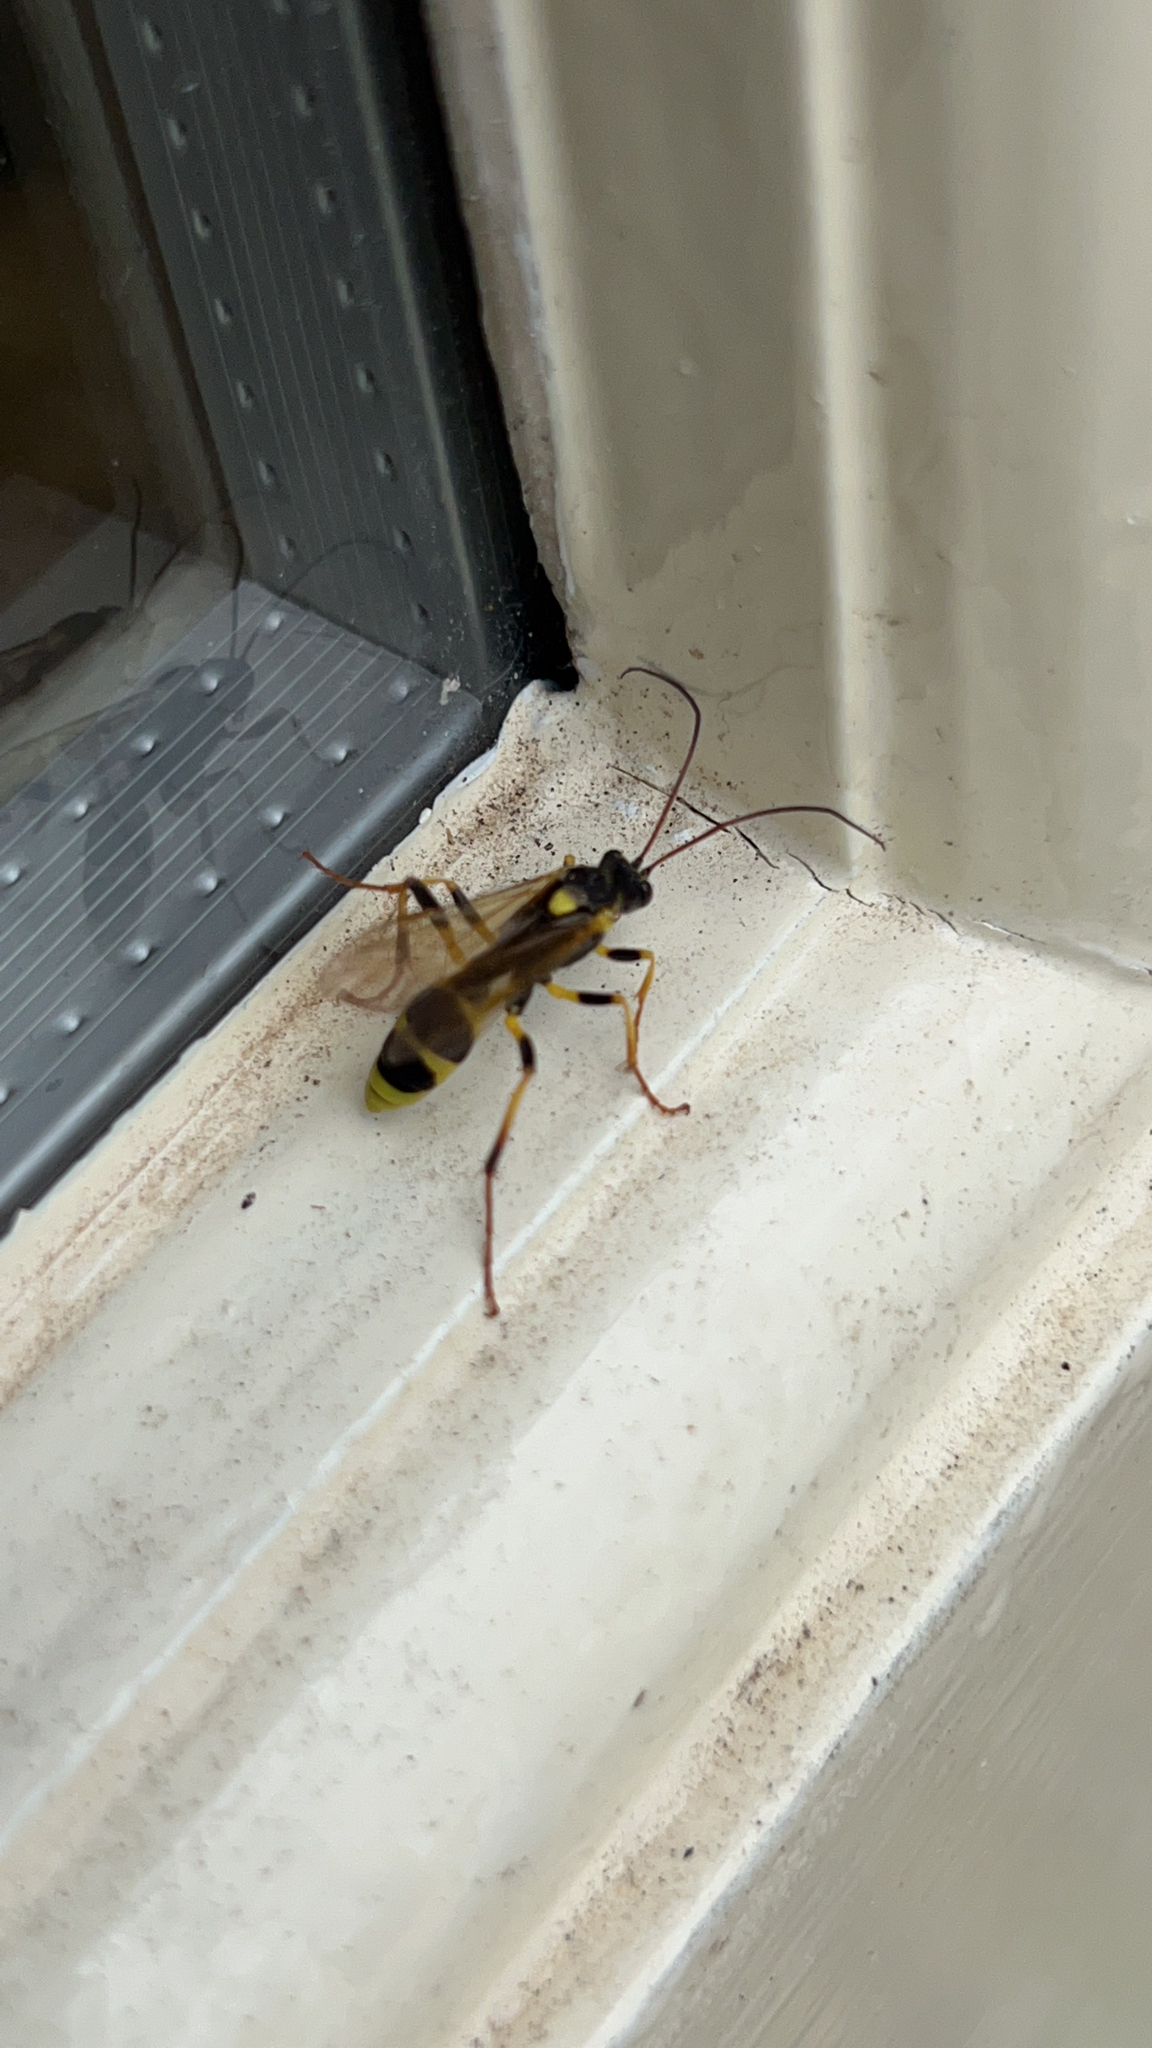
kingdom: Animalia
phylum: Arthropoda
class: Insecta
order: Hymenoptera
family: Ichneumonidae
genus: Amblyteles
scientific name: Amblyteles armatorius
